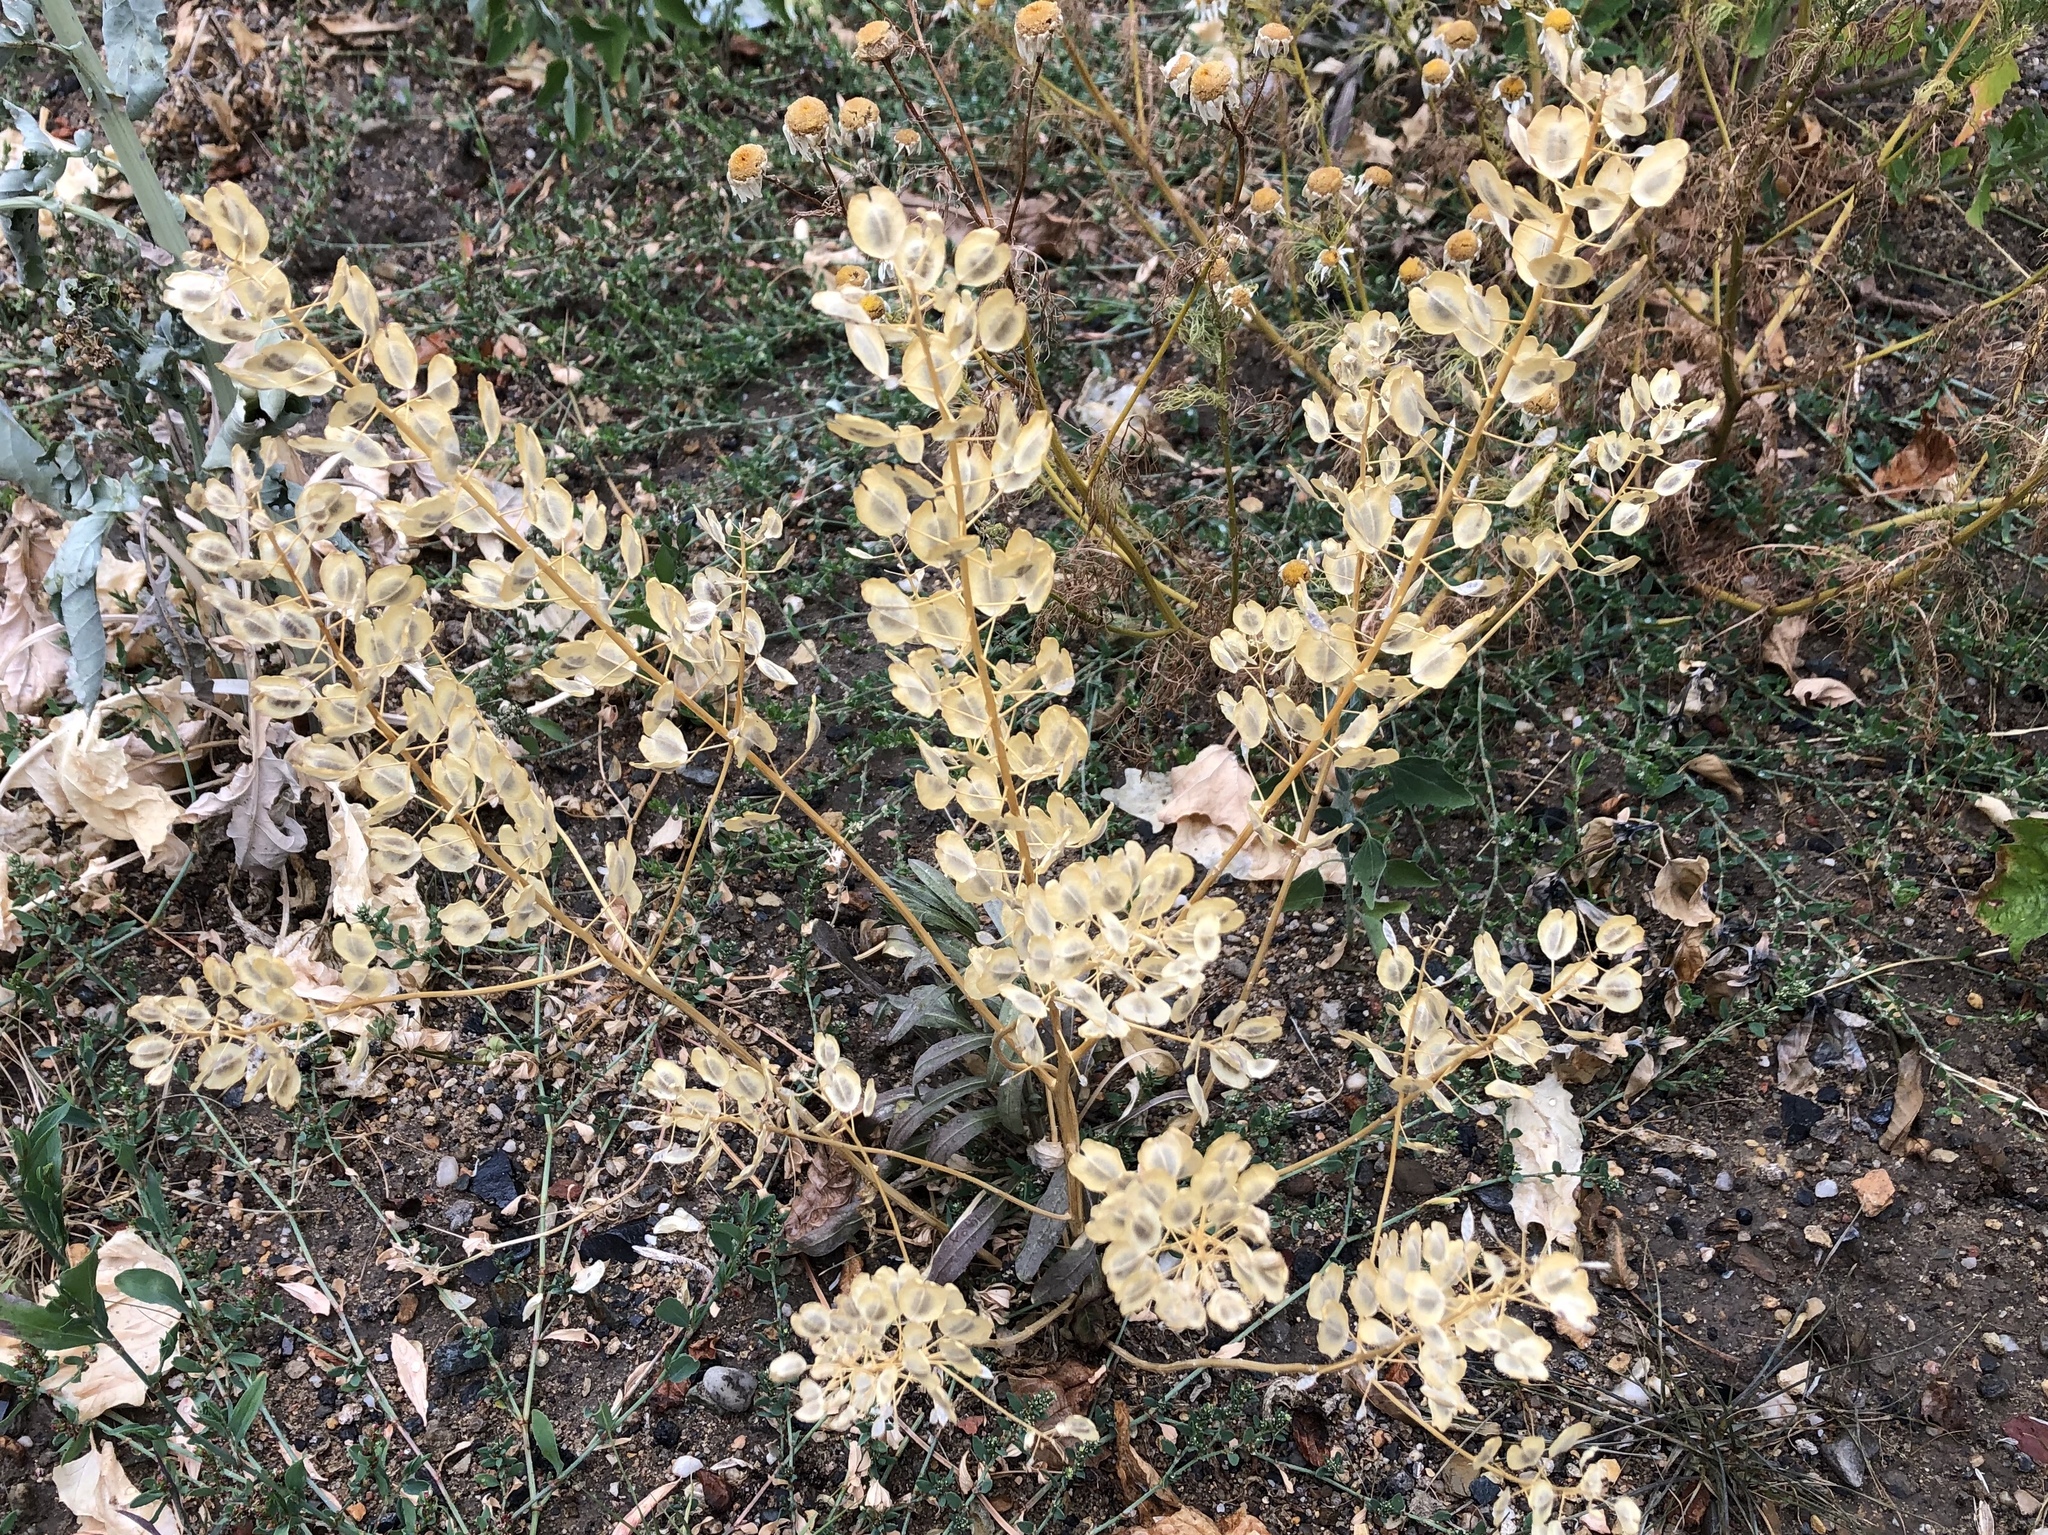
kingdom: Plantae
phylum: Tracheophyta
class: Magnoliopsida
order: Brassicales
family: Brassicaceae
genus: Thlaspi
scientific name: Thlaspi arvense
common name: Field pennycress
